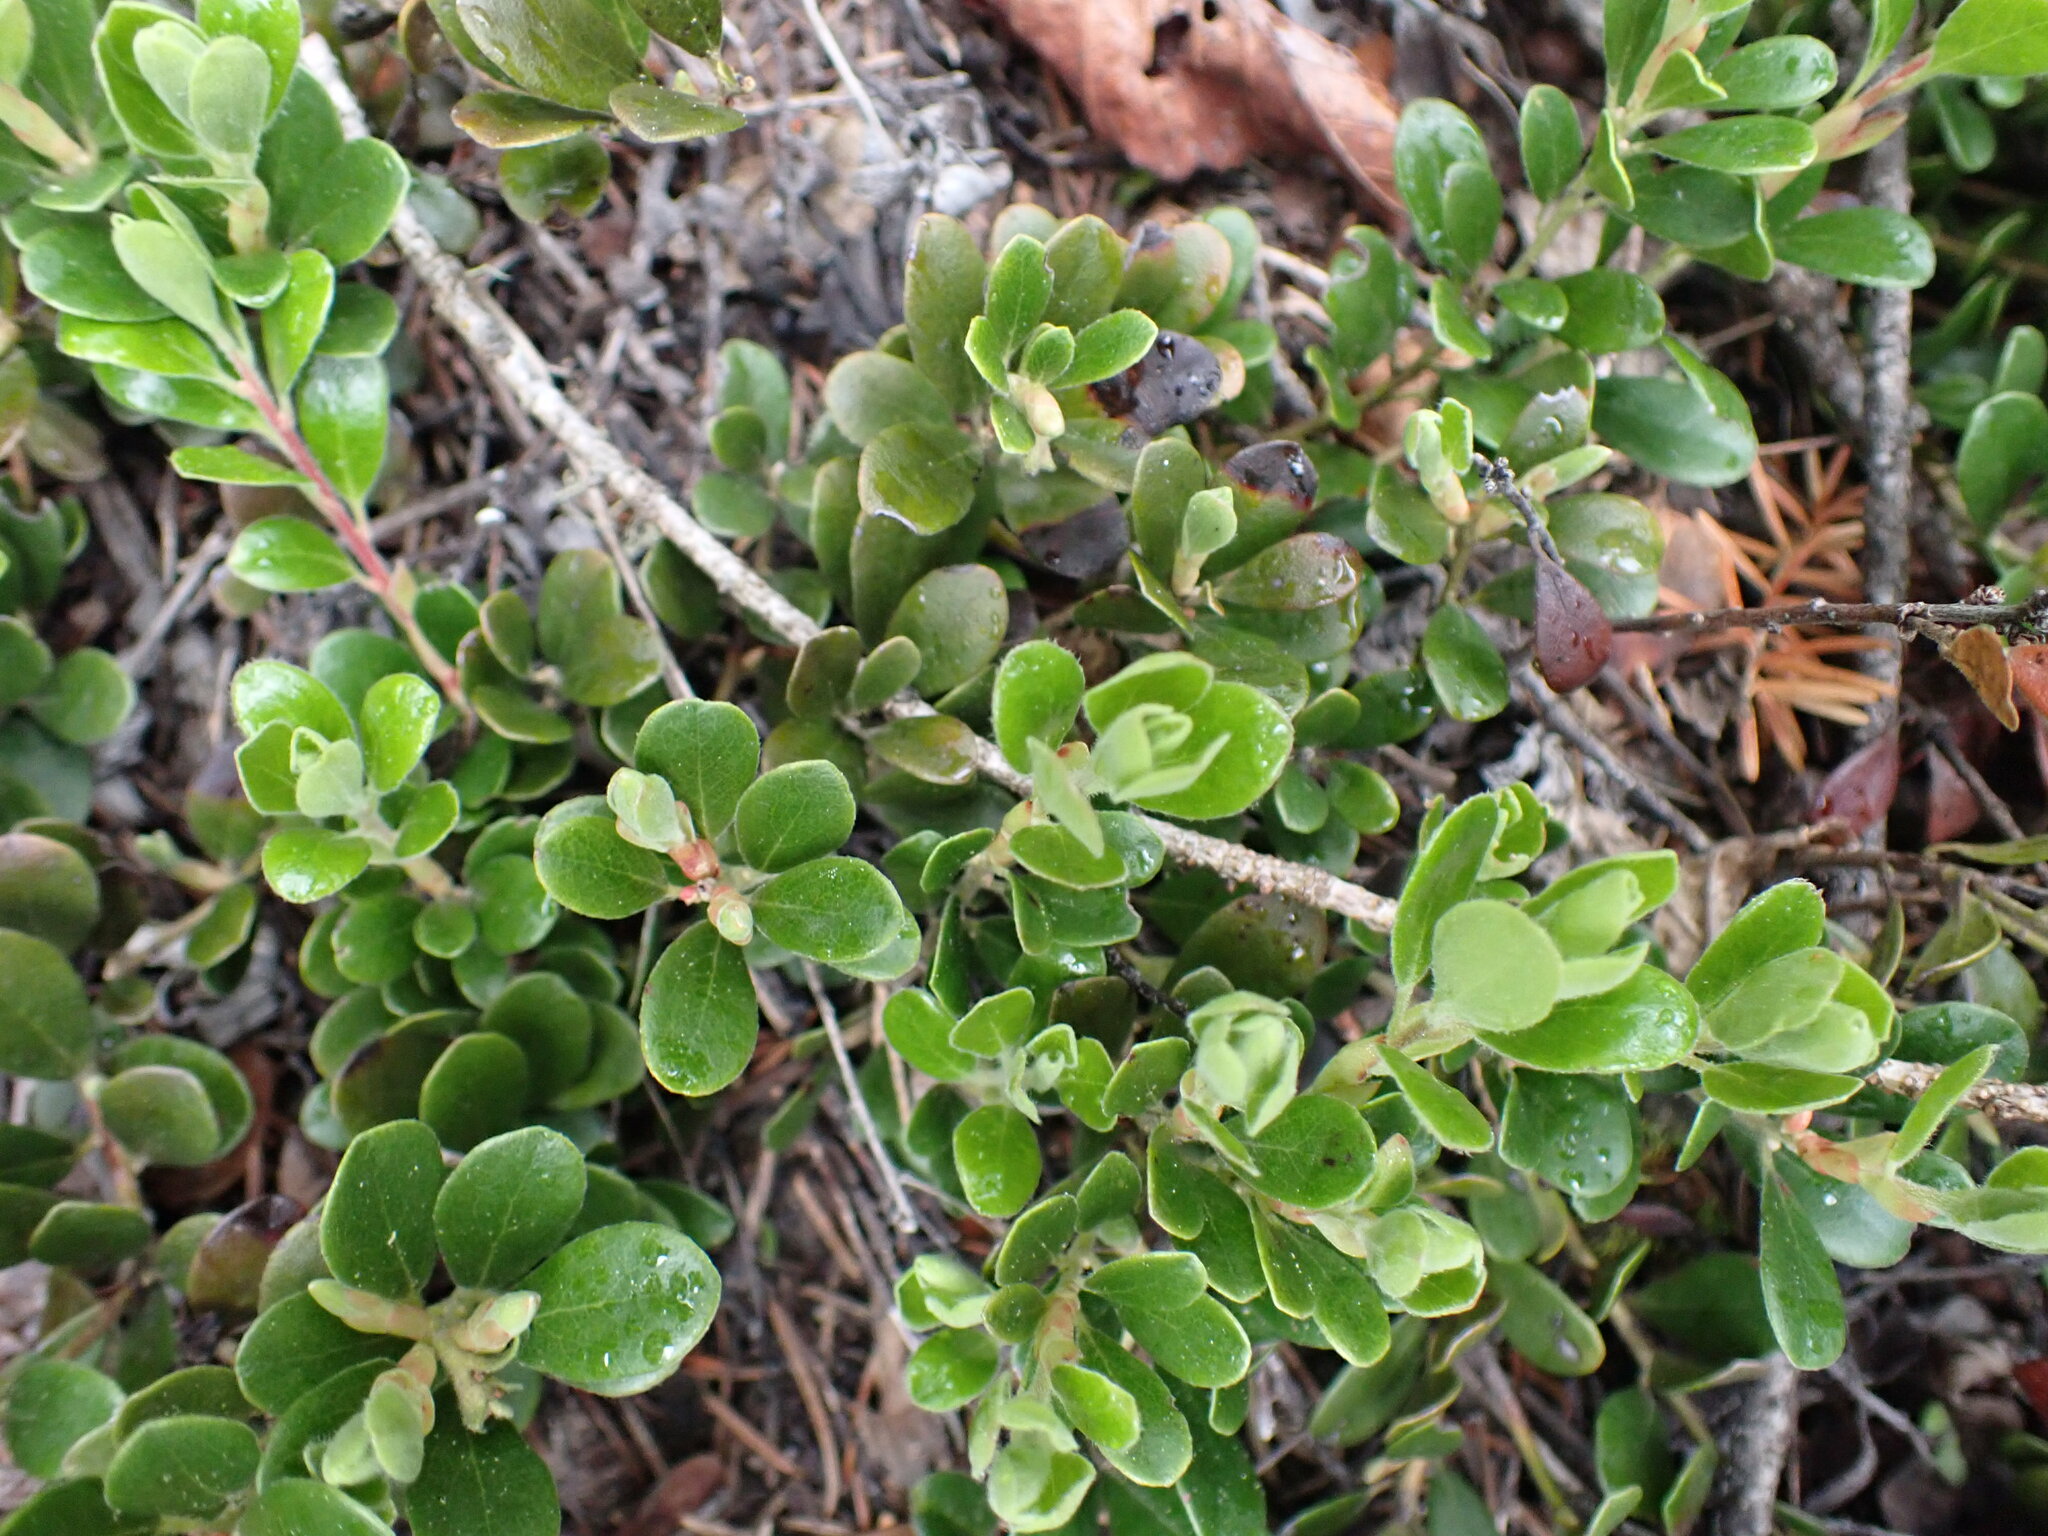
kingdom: Plantae
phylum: Tracheophyta
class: Magnoliopsida
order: Ericales
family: Ericaceae
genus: Arctostaphylos
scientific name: Arctostaphylos uva-ursi
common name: Bearberry
